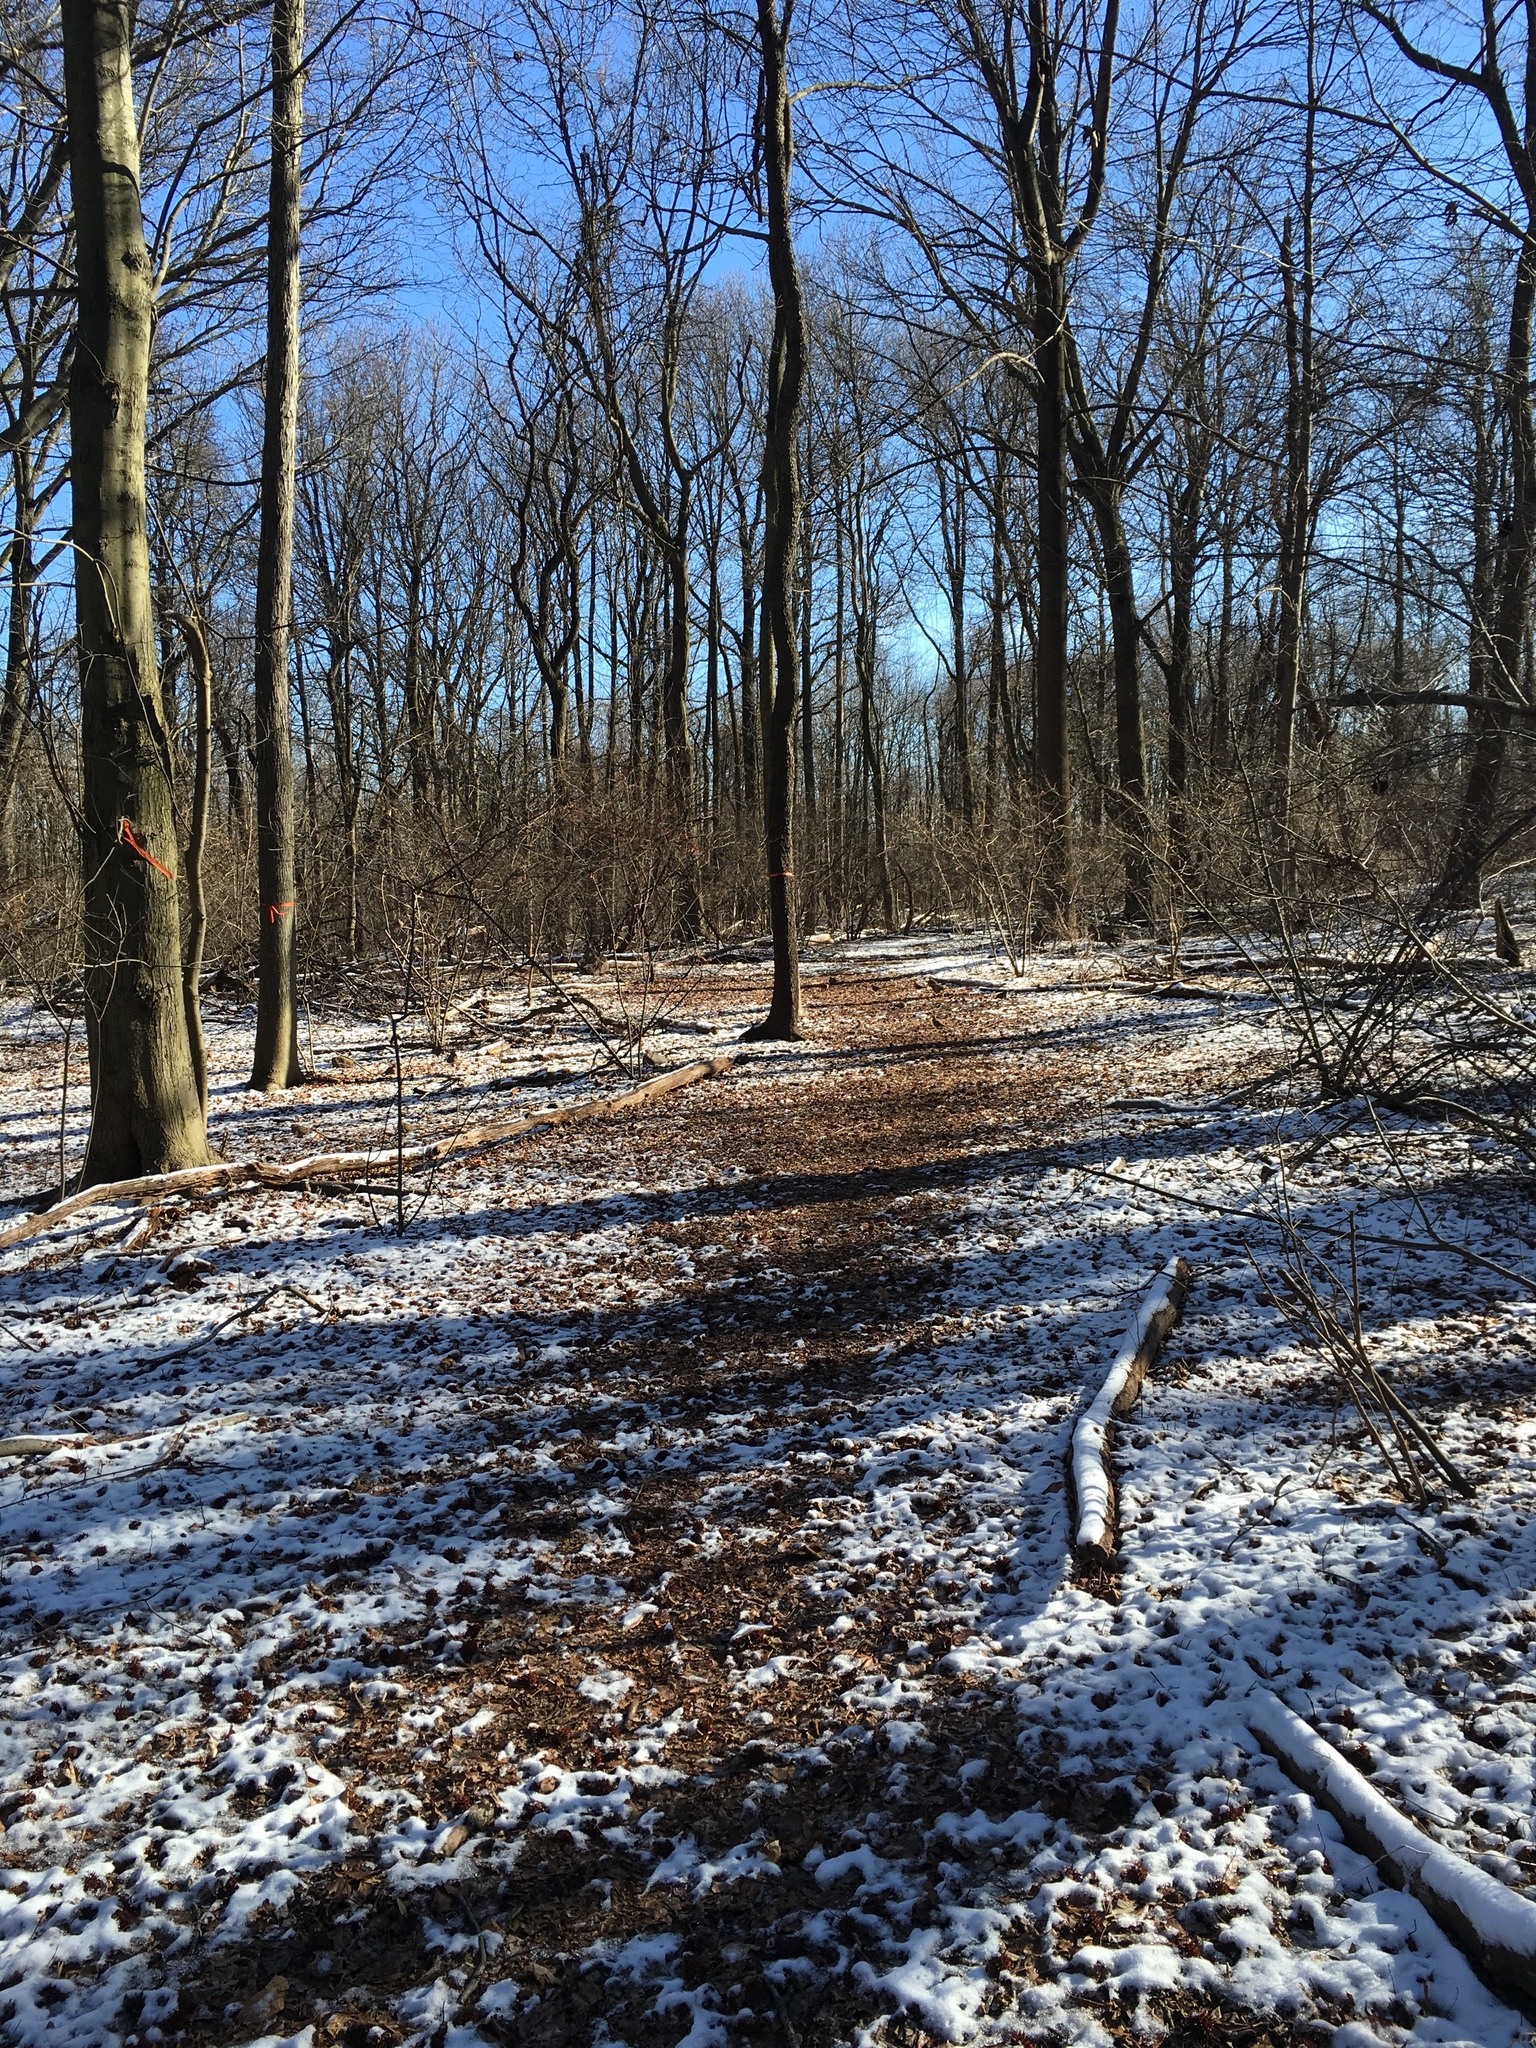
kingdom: Animalia
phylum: Chordata
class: Aves
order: Columbiformes
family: Columbidae
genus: Zenaida
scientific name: Zenaida macroura
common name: Mourning dove
